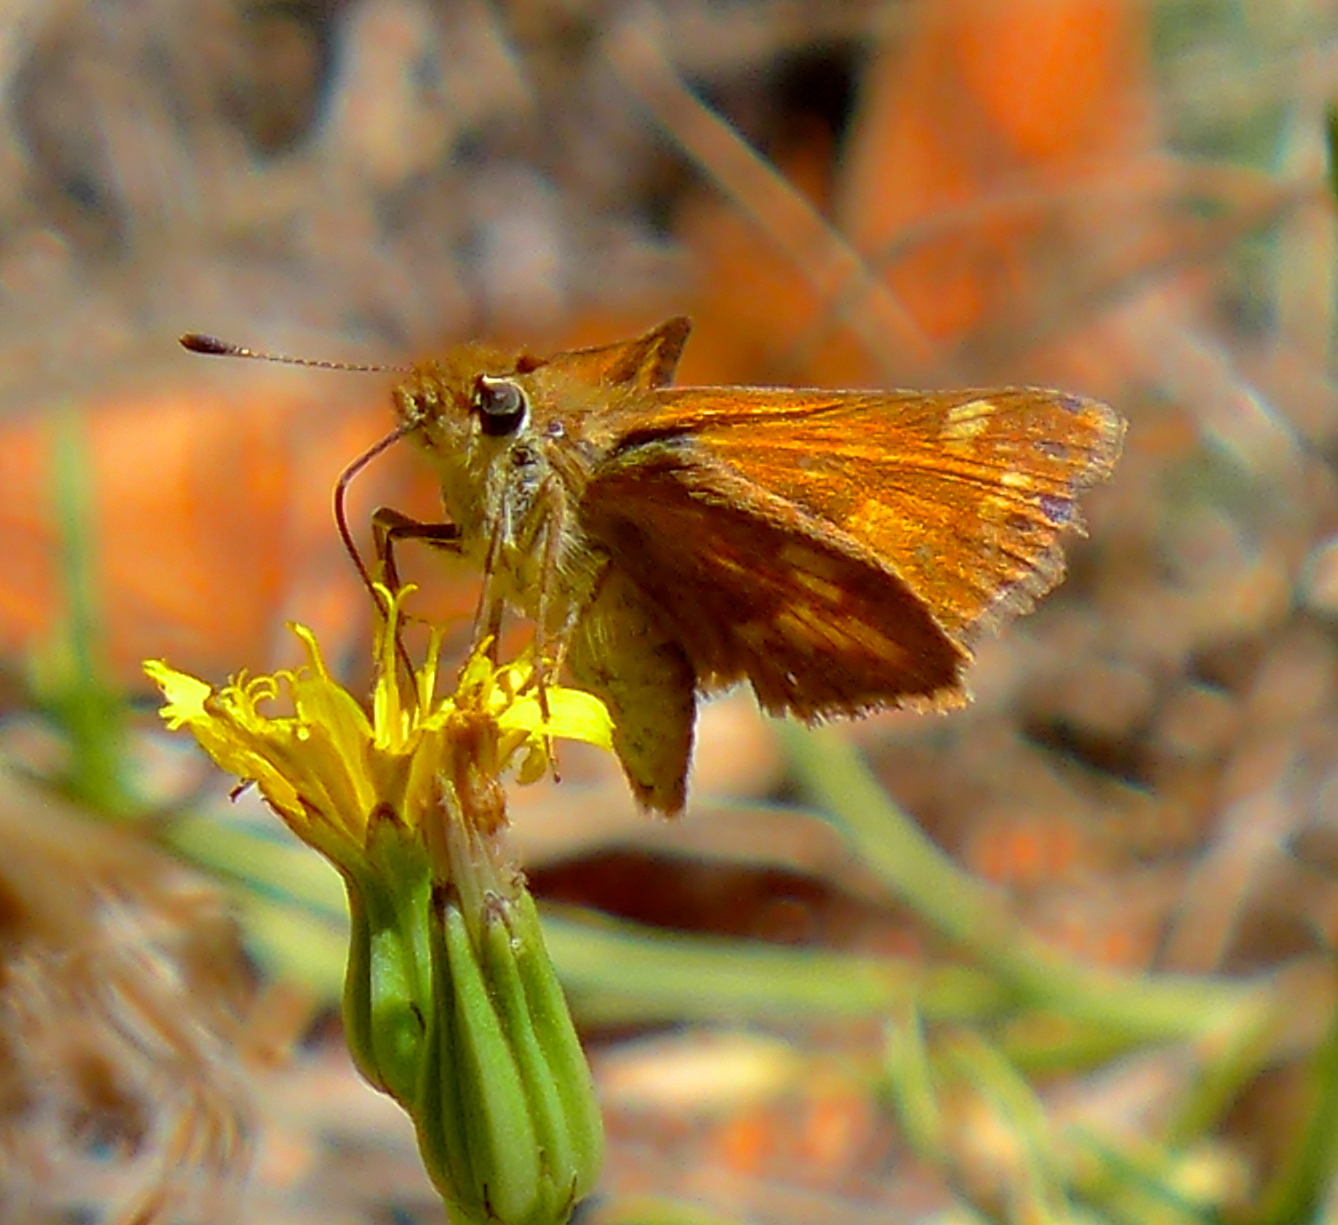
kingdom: Animalia
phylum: Arthropoda
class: Insecta
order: Lepidoptera
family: Hesperiidae
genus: Ochlodes
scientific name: Ochlodes sylvanoides
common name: Woodland skipper
